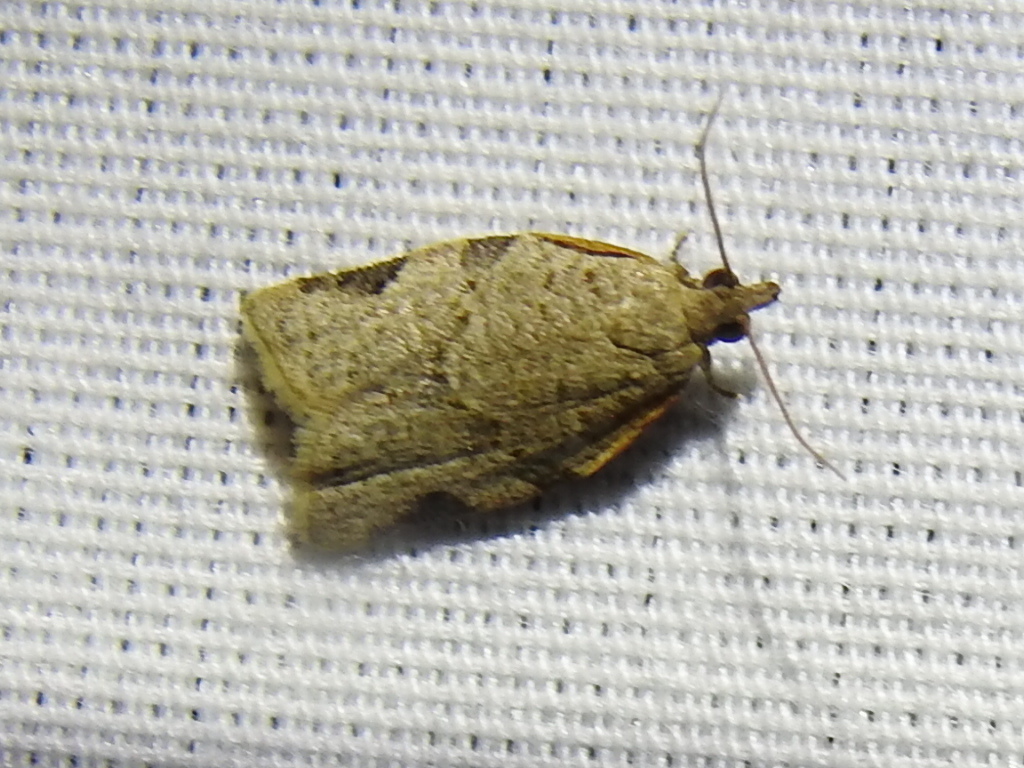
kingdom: Animalia
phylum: Arthropoda
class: Insecta
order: Lepidoptera
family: Tortricidae
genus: Clepsis
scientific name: Clepsis virescana
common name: Greenish apple moth
